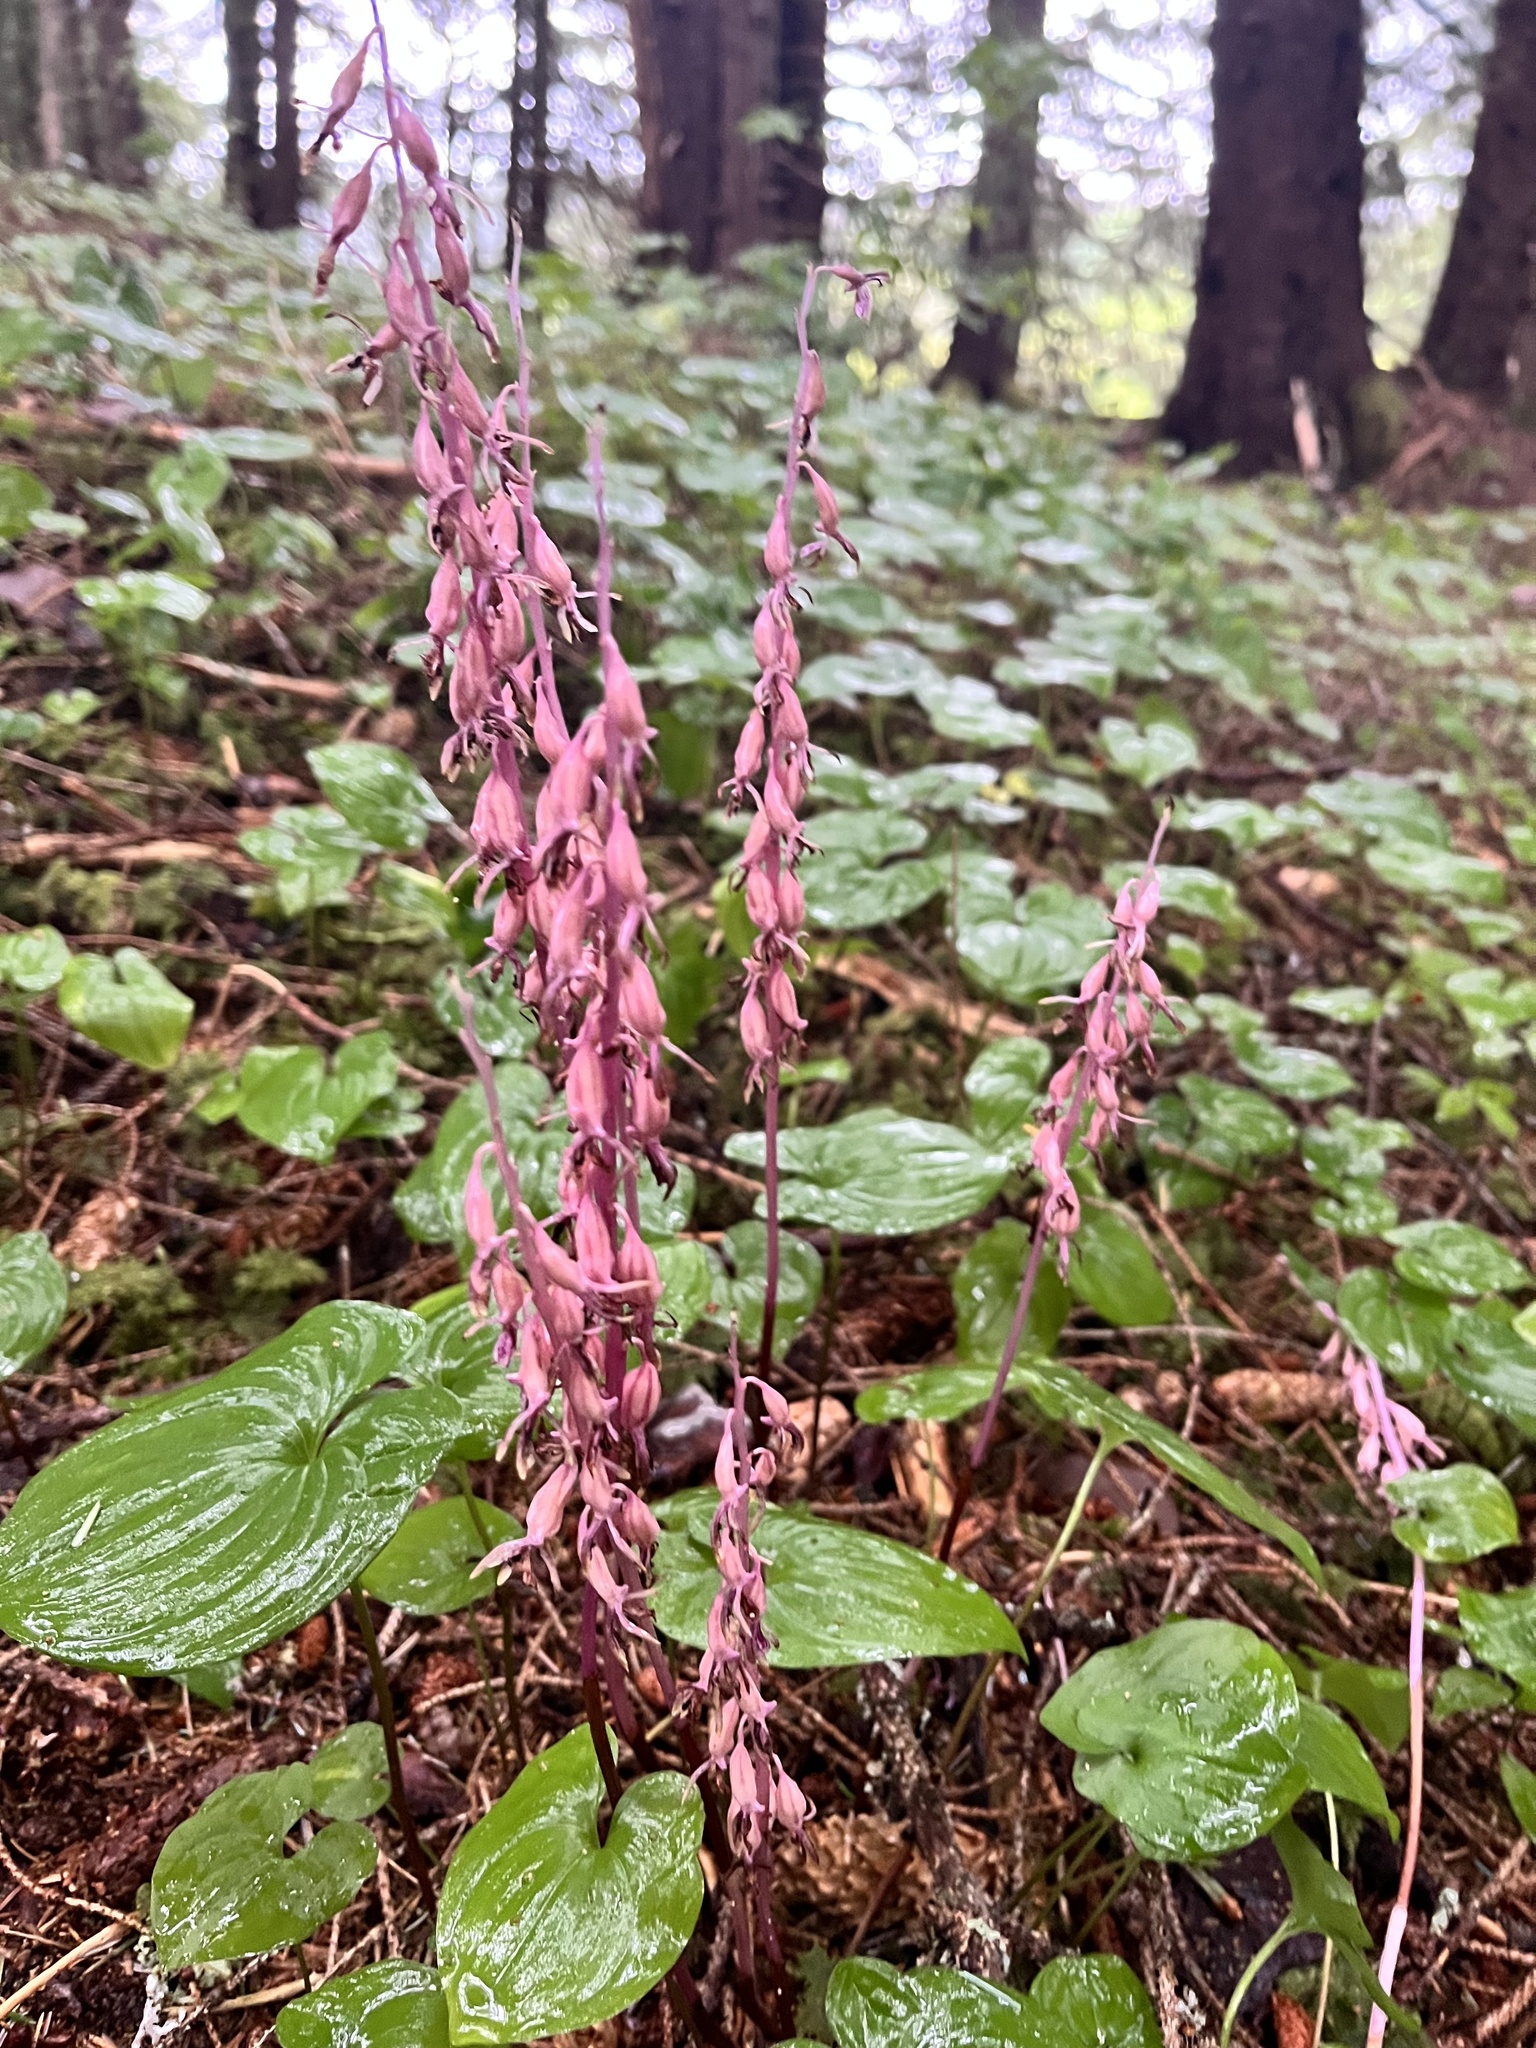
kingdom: Plantae
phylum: Tracheophyta
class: Liliopsida
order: Asparagales
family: Orchidaceae
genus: Corallorhiza
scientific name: Corallorhiza mertensiana
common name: Pacific coralroot
